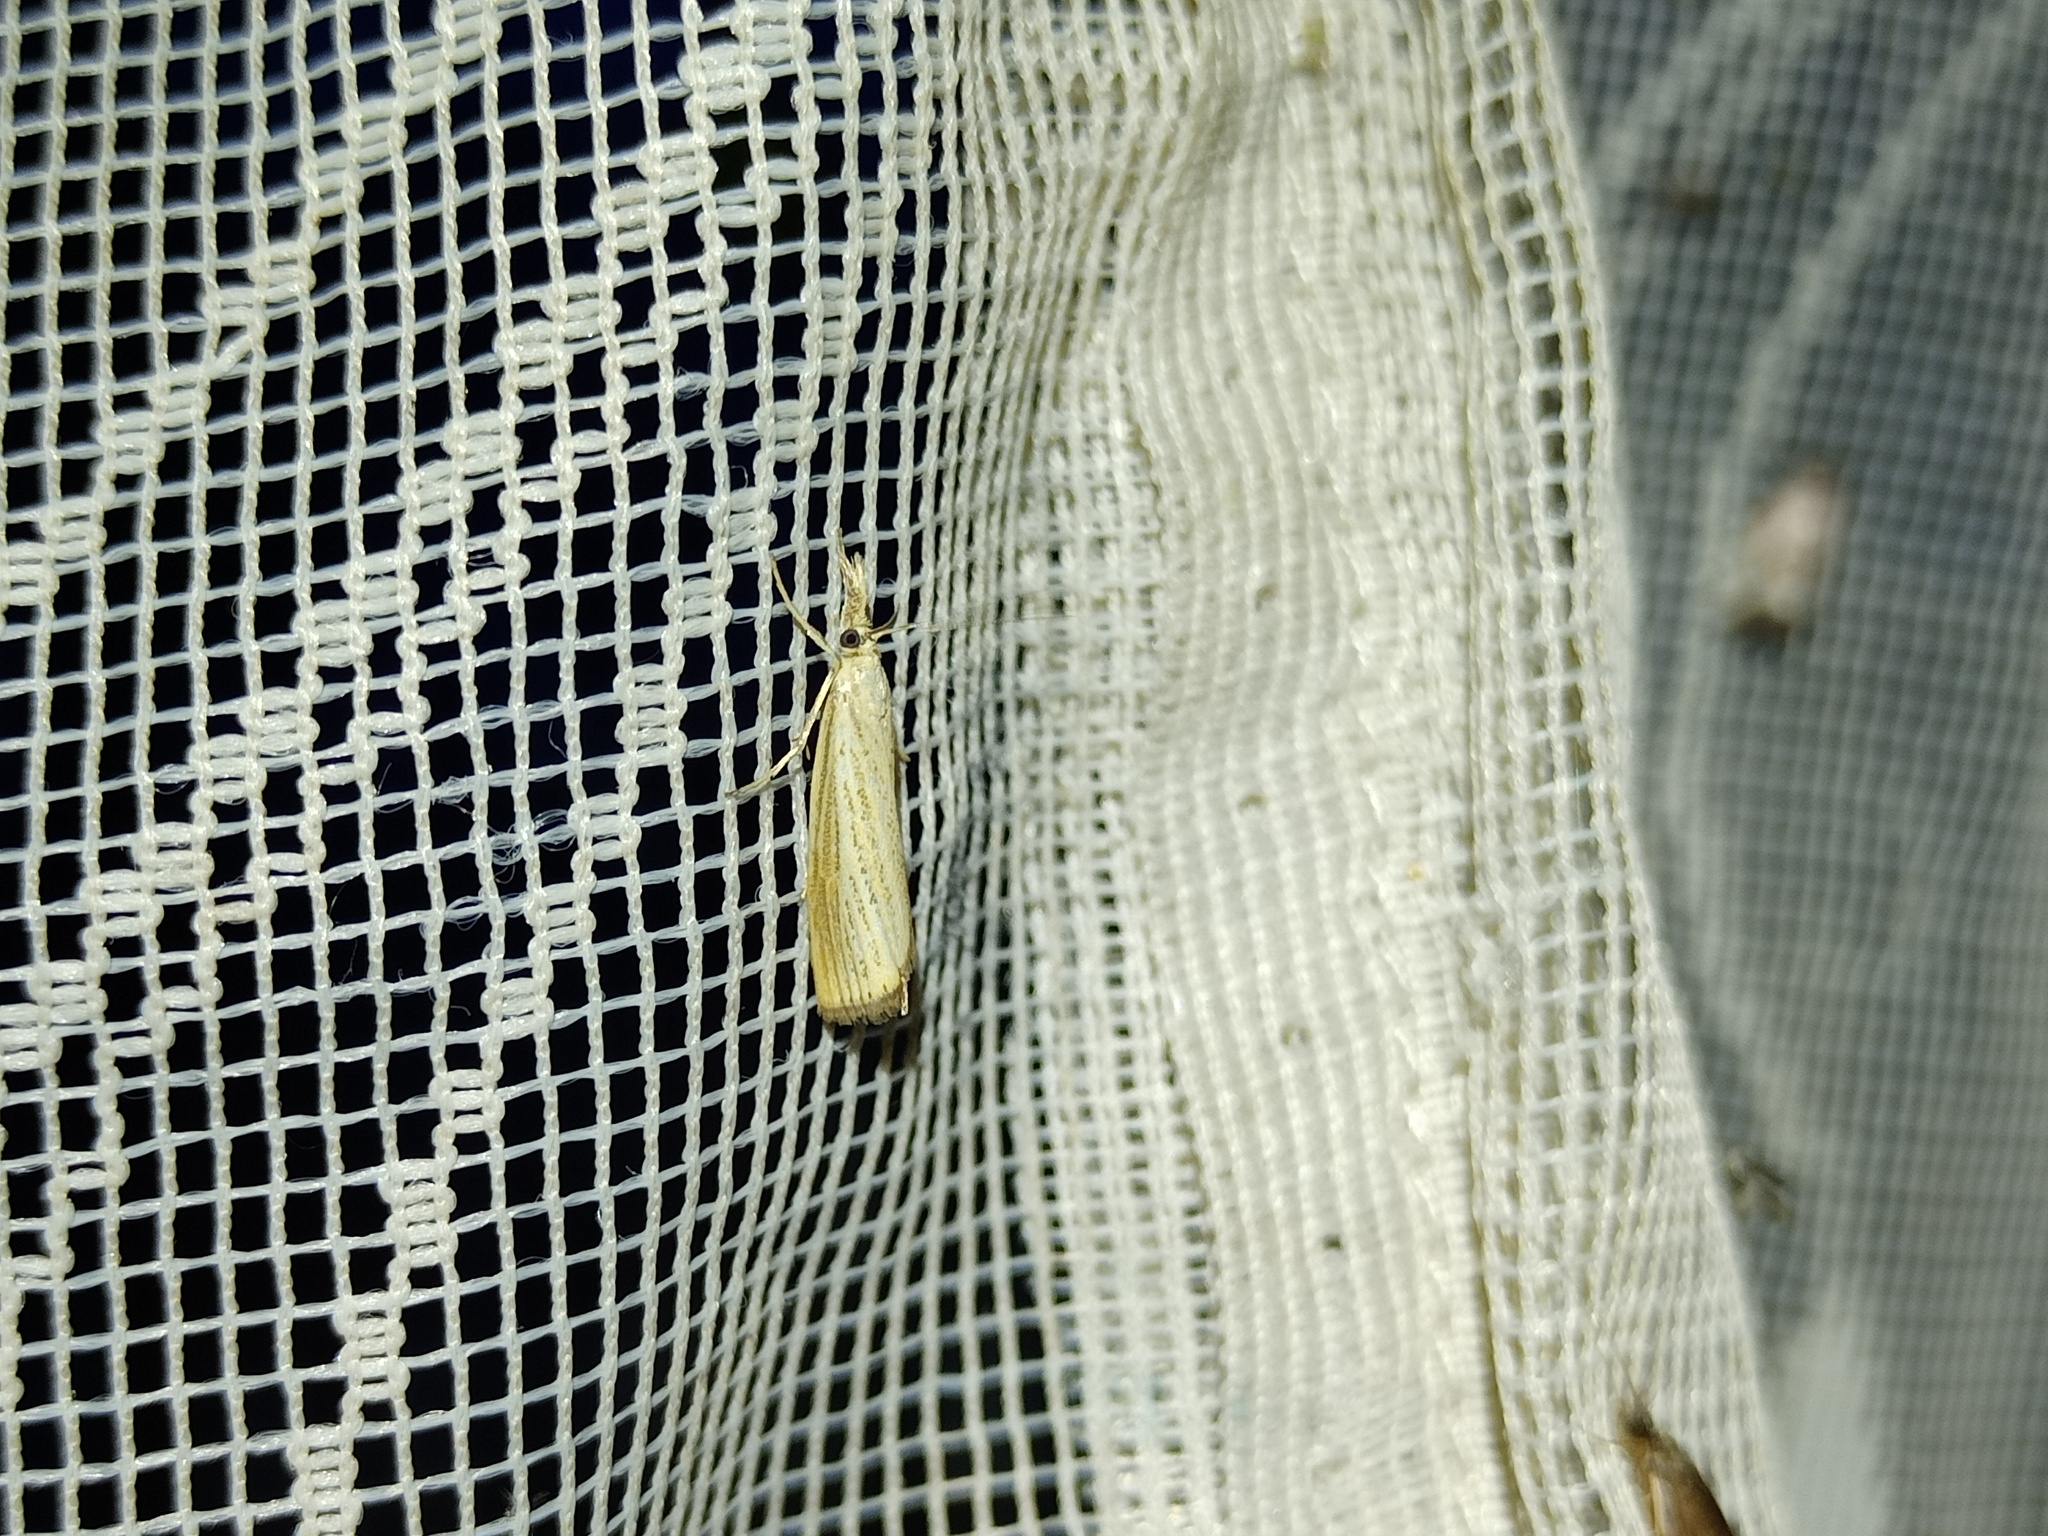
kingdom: Animalia
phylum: Arthropoda
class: Insecta
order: Lepidoptera
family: Crambidae
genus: Agriphila
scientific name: Agriphila straminella
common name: Straw grass-veneer
